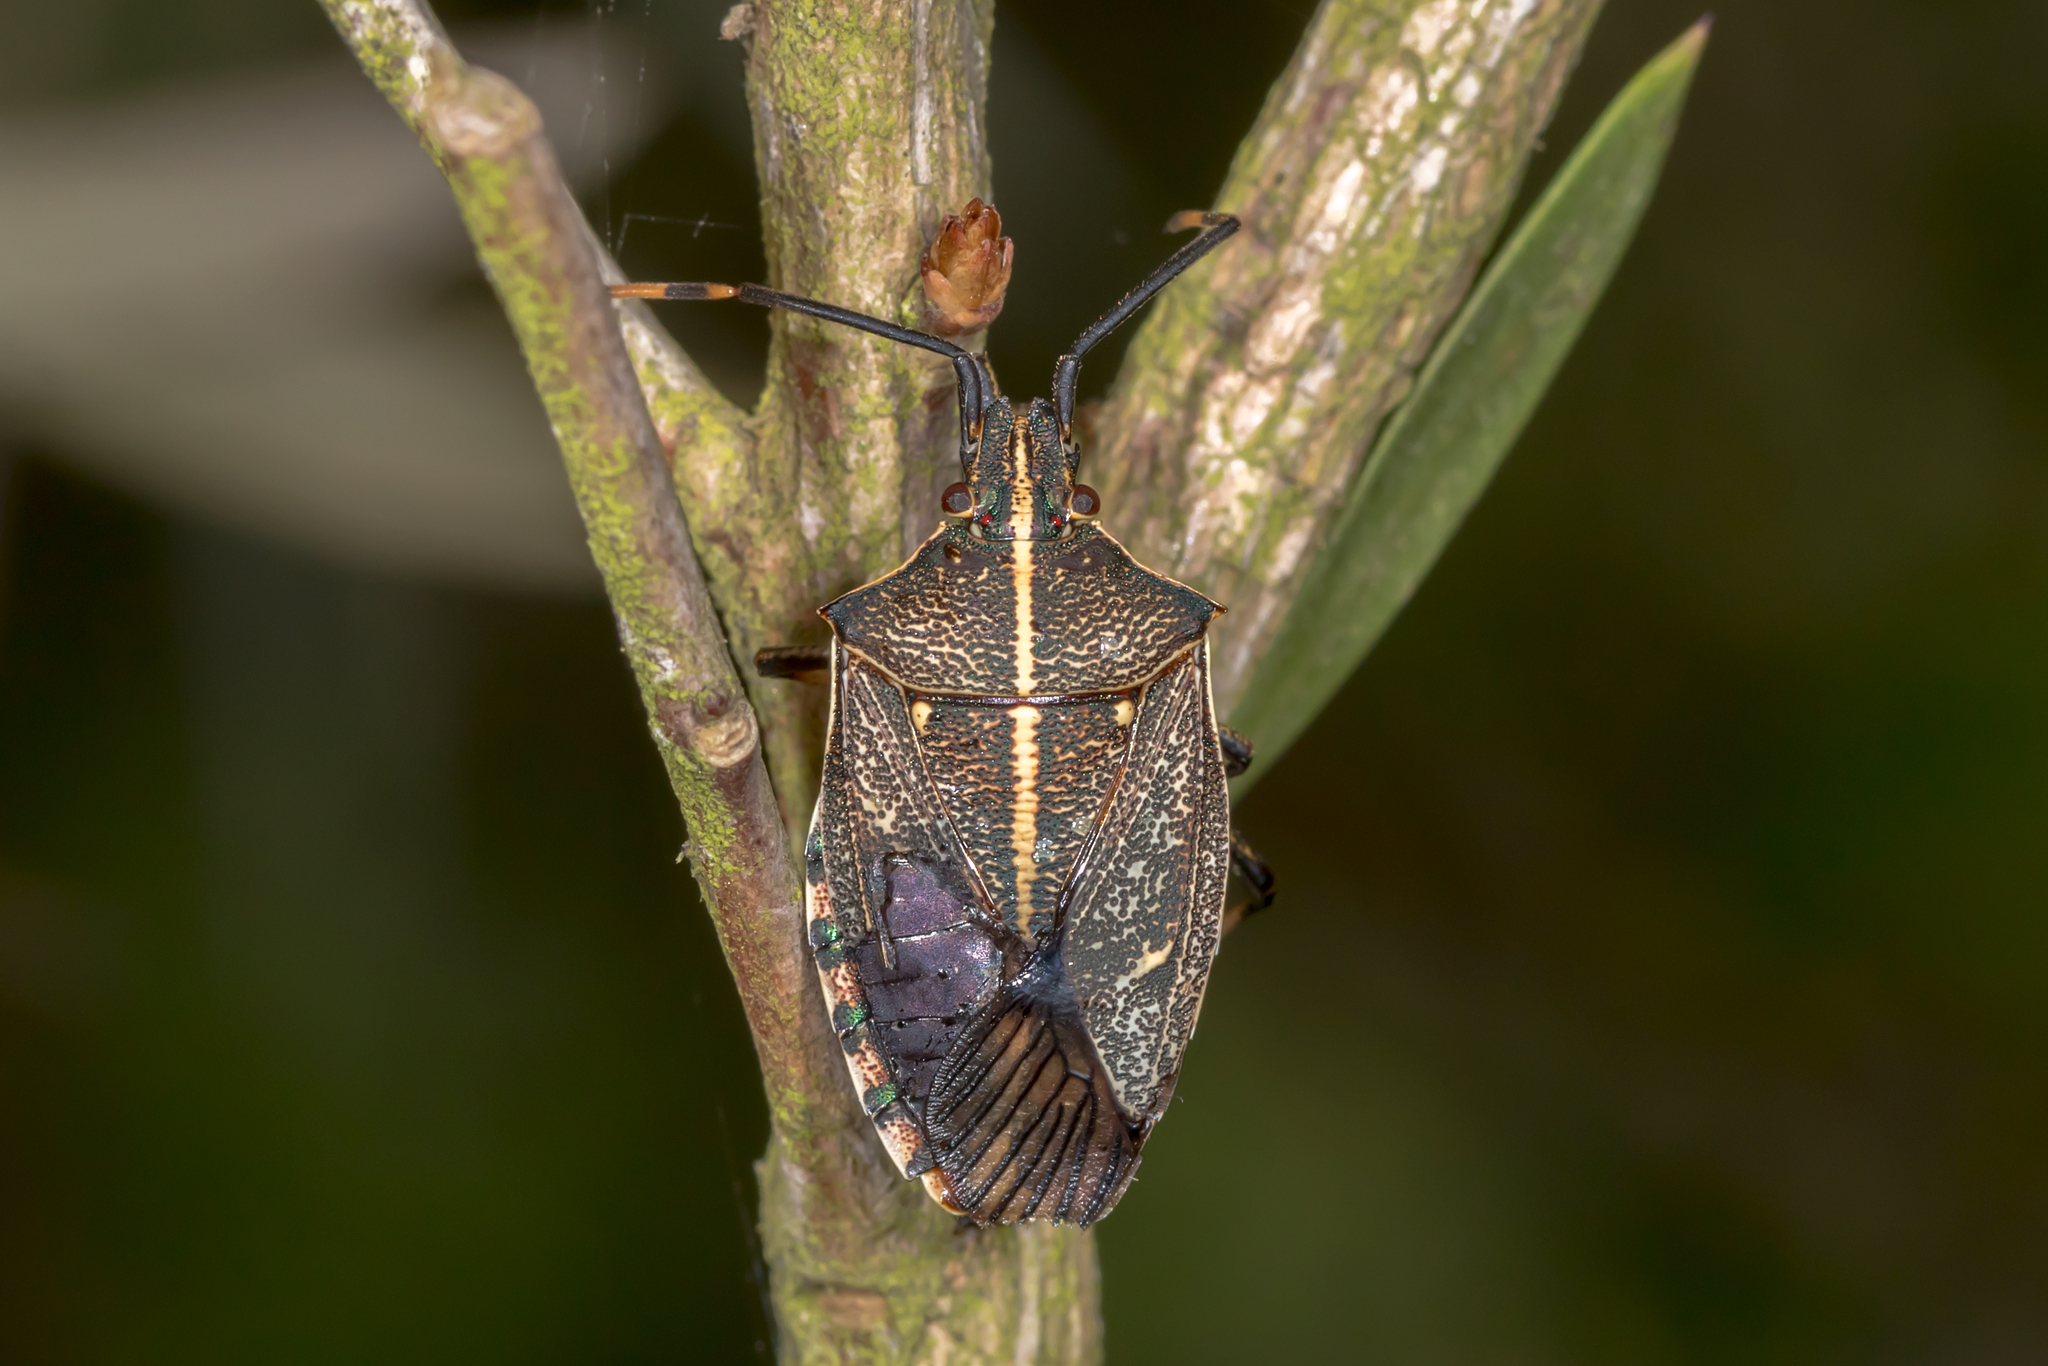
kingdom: Animalia
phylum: Arthropoda
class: Insecta
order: Hemiptera
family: Pentatomidae
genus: Omyta
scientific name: Omyta centrolineata
